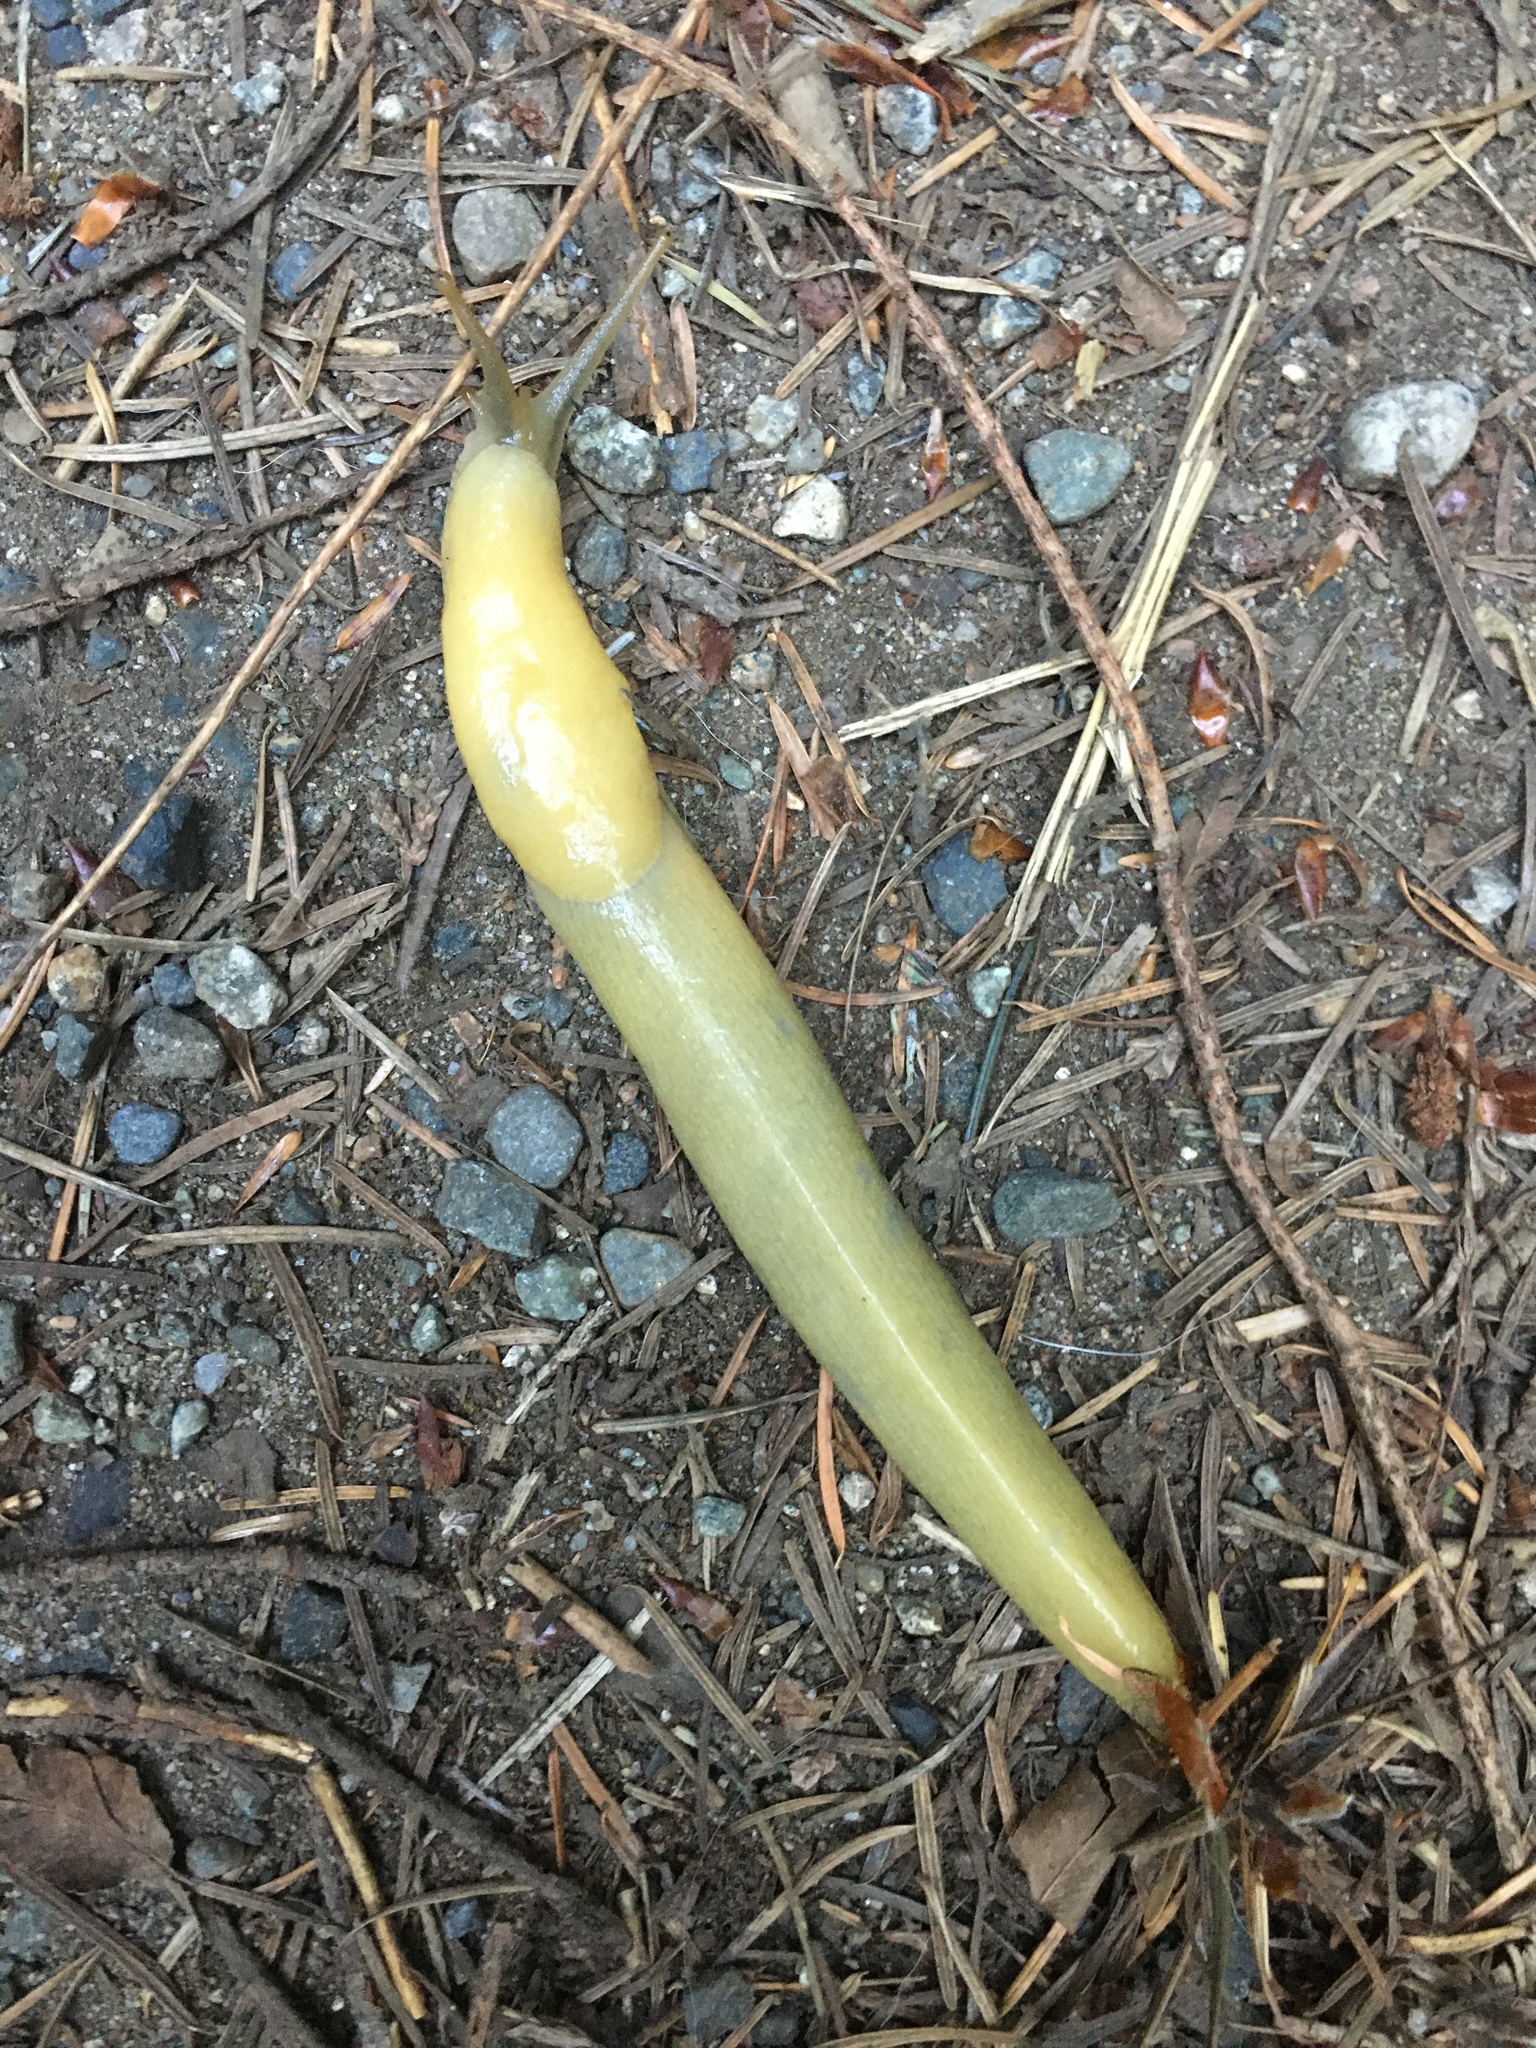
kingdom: Animalia
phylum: Mollusca
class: Gastropoda
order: Stylommatophora
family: Ariolimacidae
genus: Ariolimax
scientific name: Ariolimax columbianus
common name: Pacific banana slug
